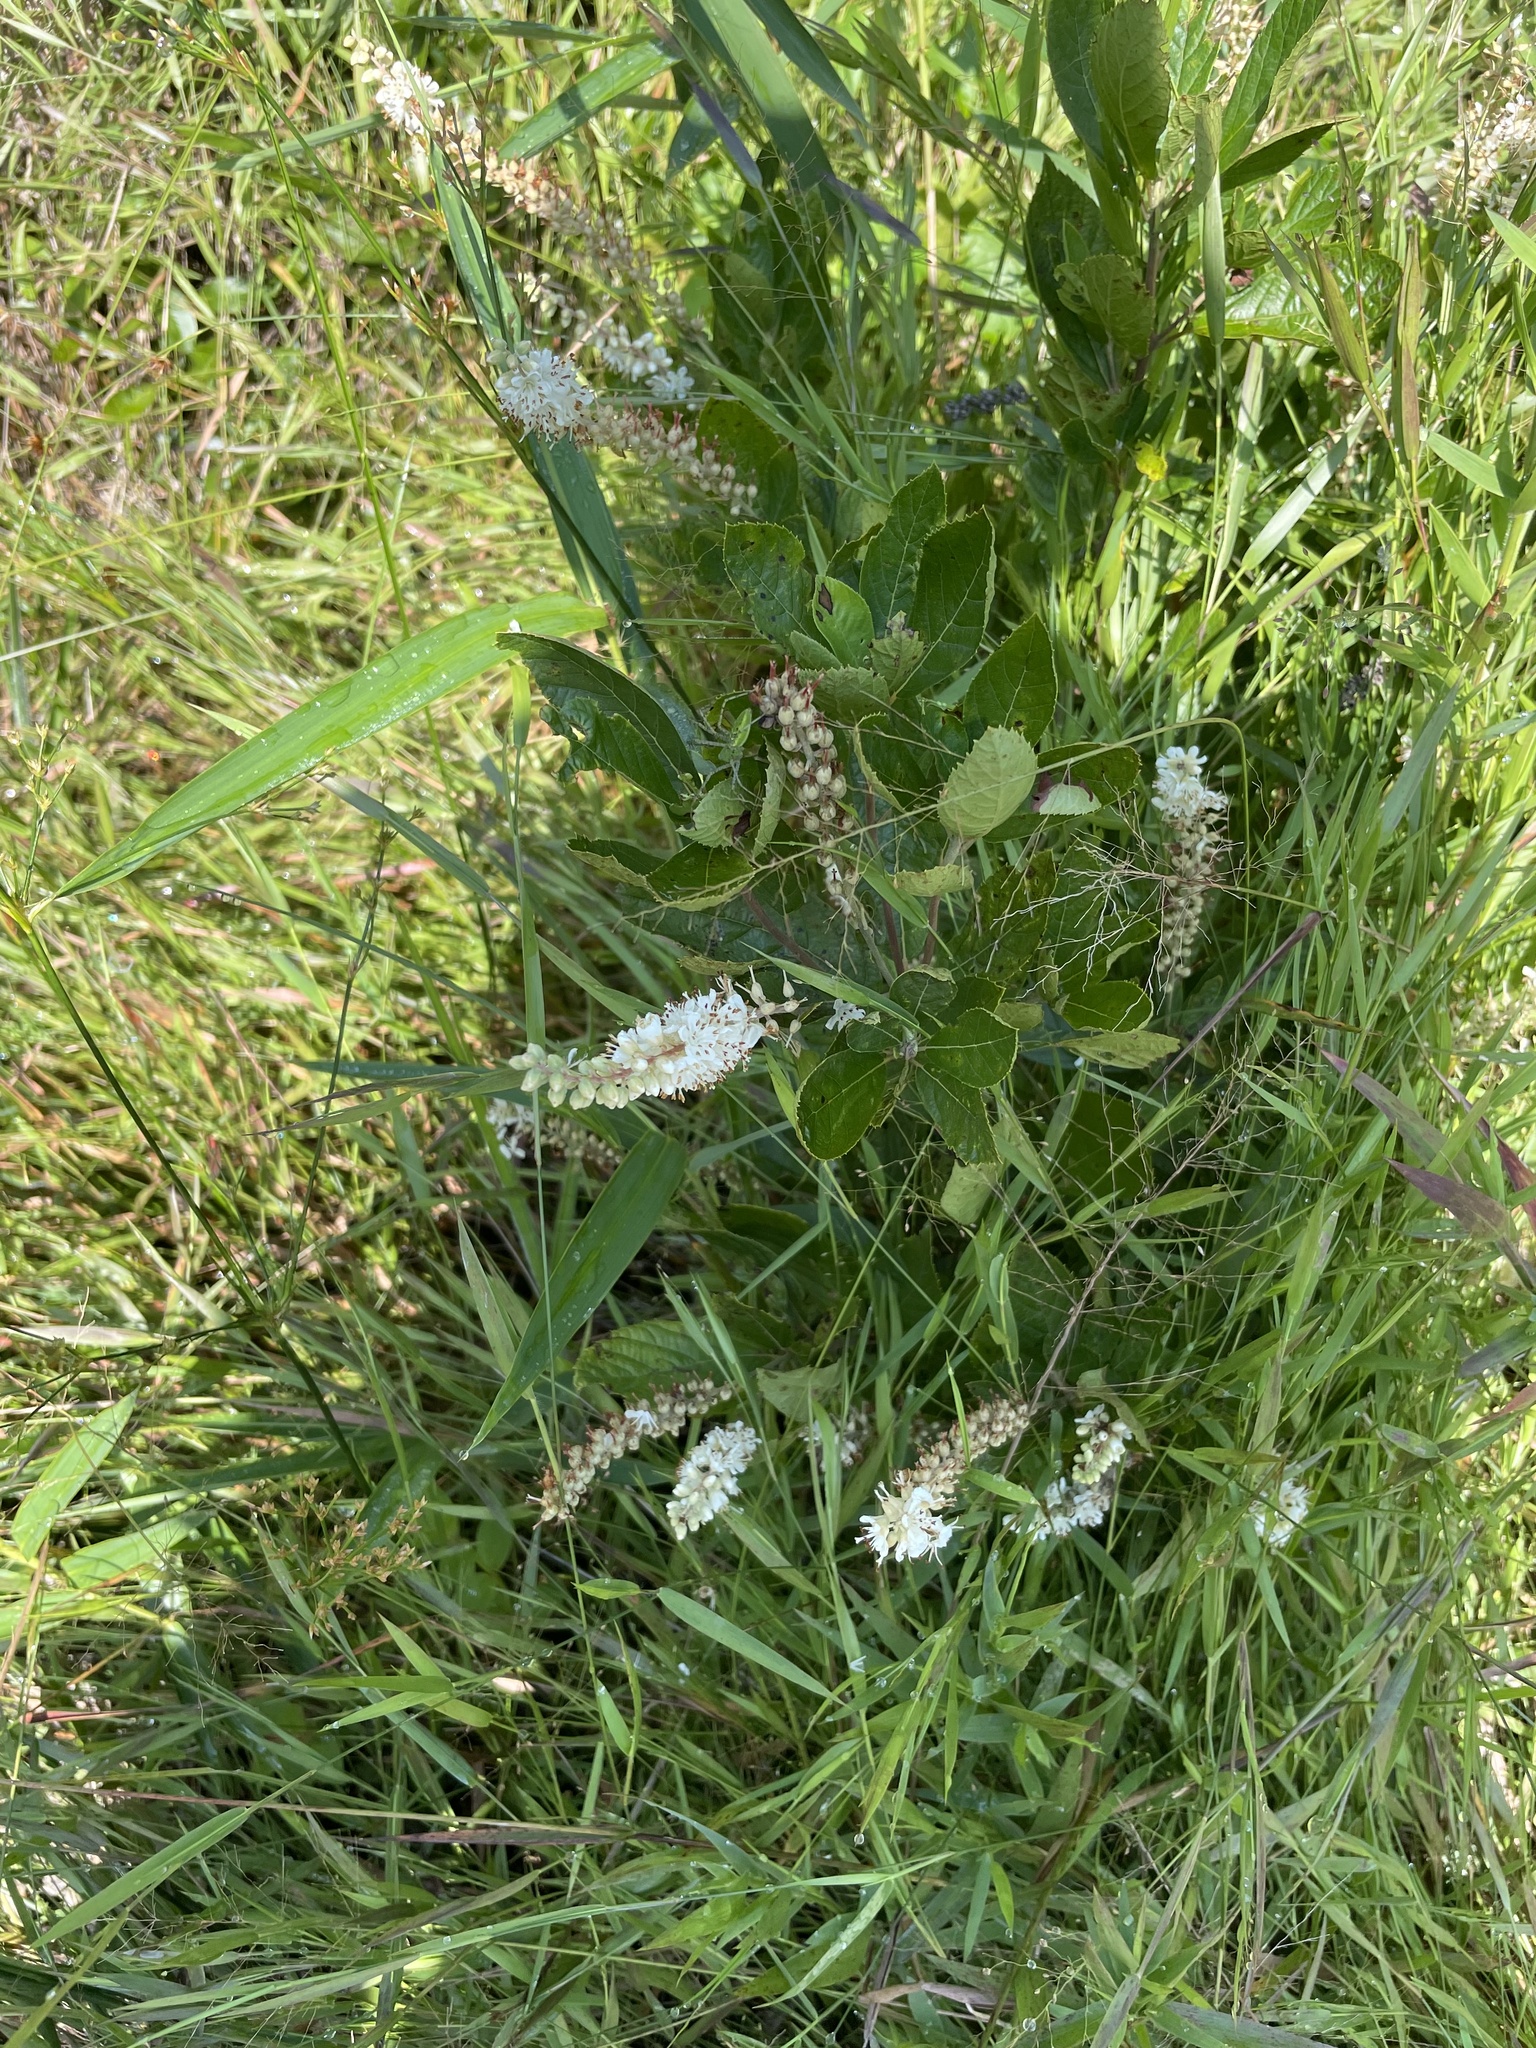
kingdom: Plantae
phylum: Tracheophyta
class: Magnoliopsida
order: Ericales
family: Clethraceae
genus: Clethra
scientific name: Clethra alnifolia
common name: Sweet pepperbush
